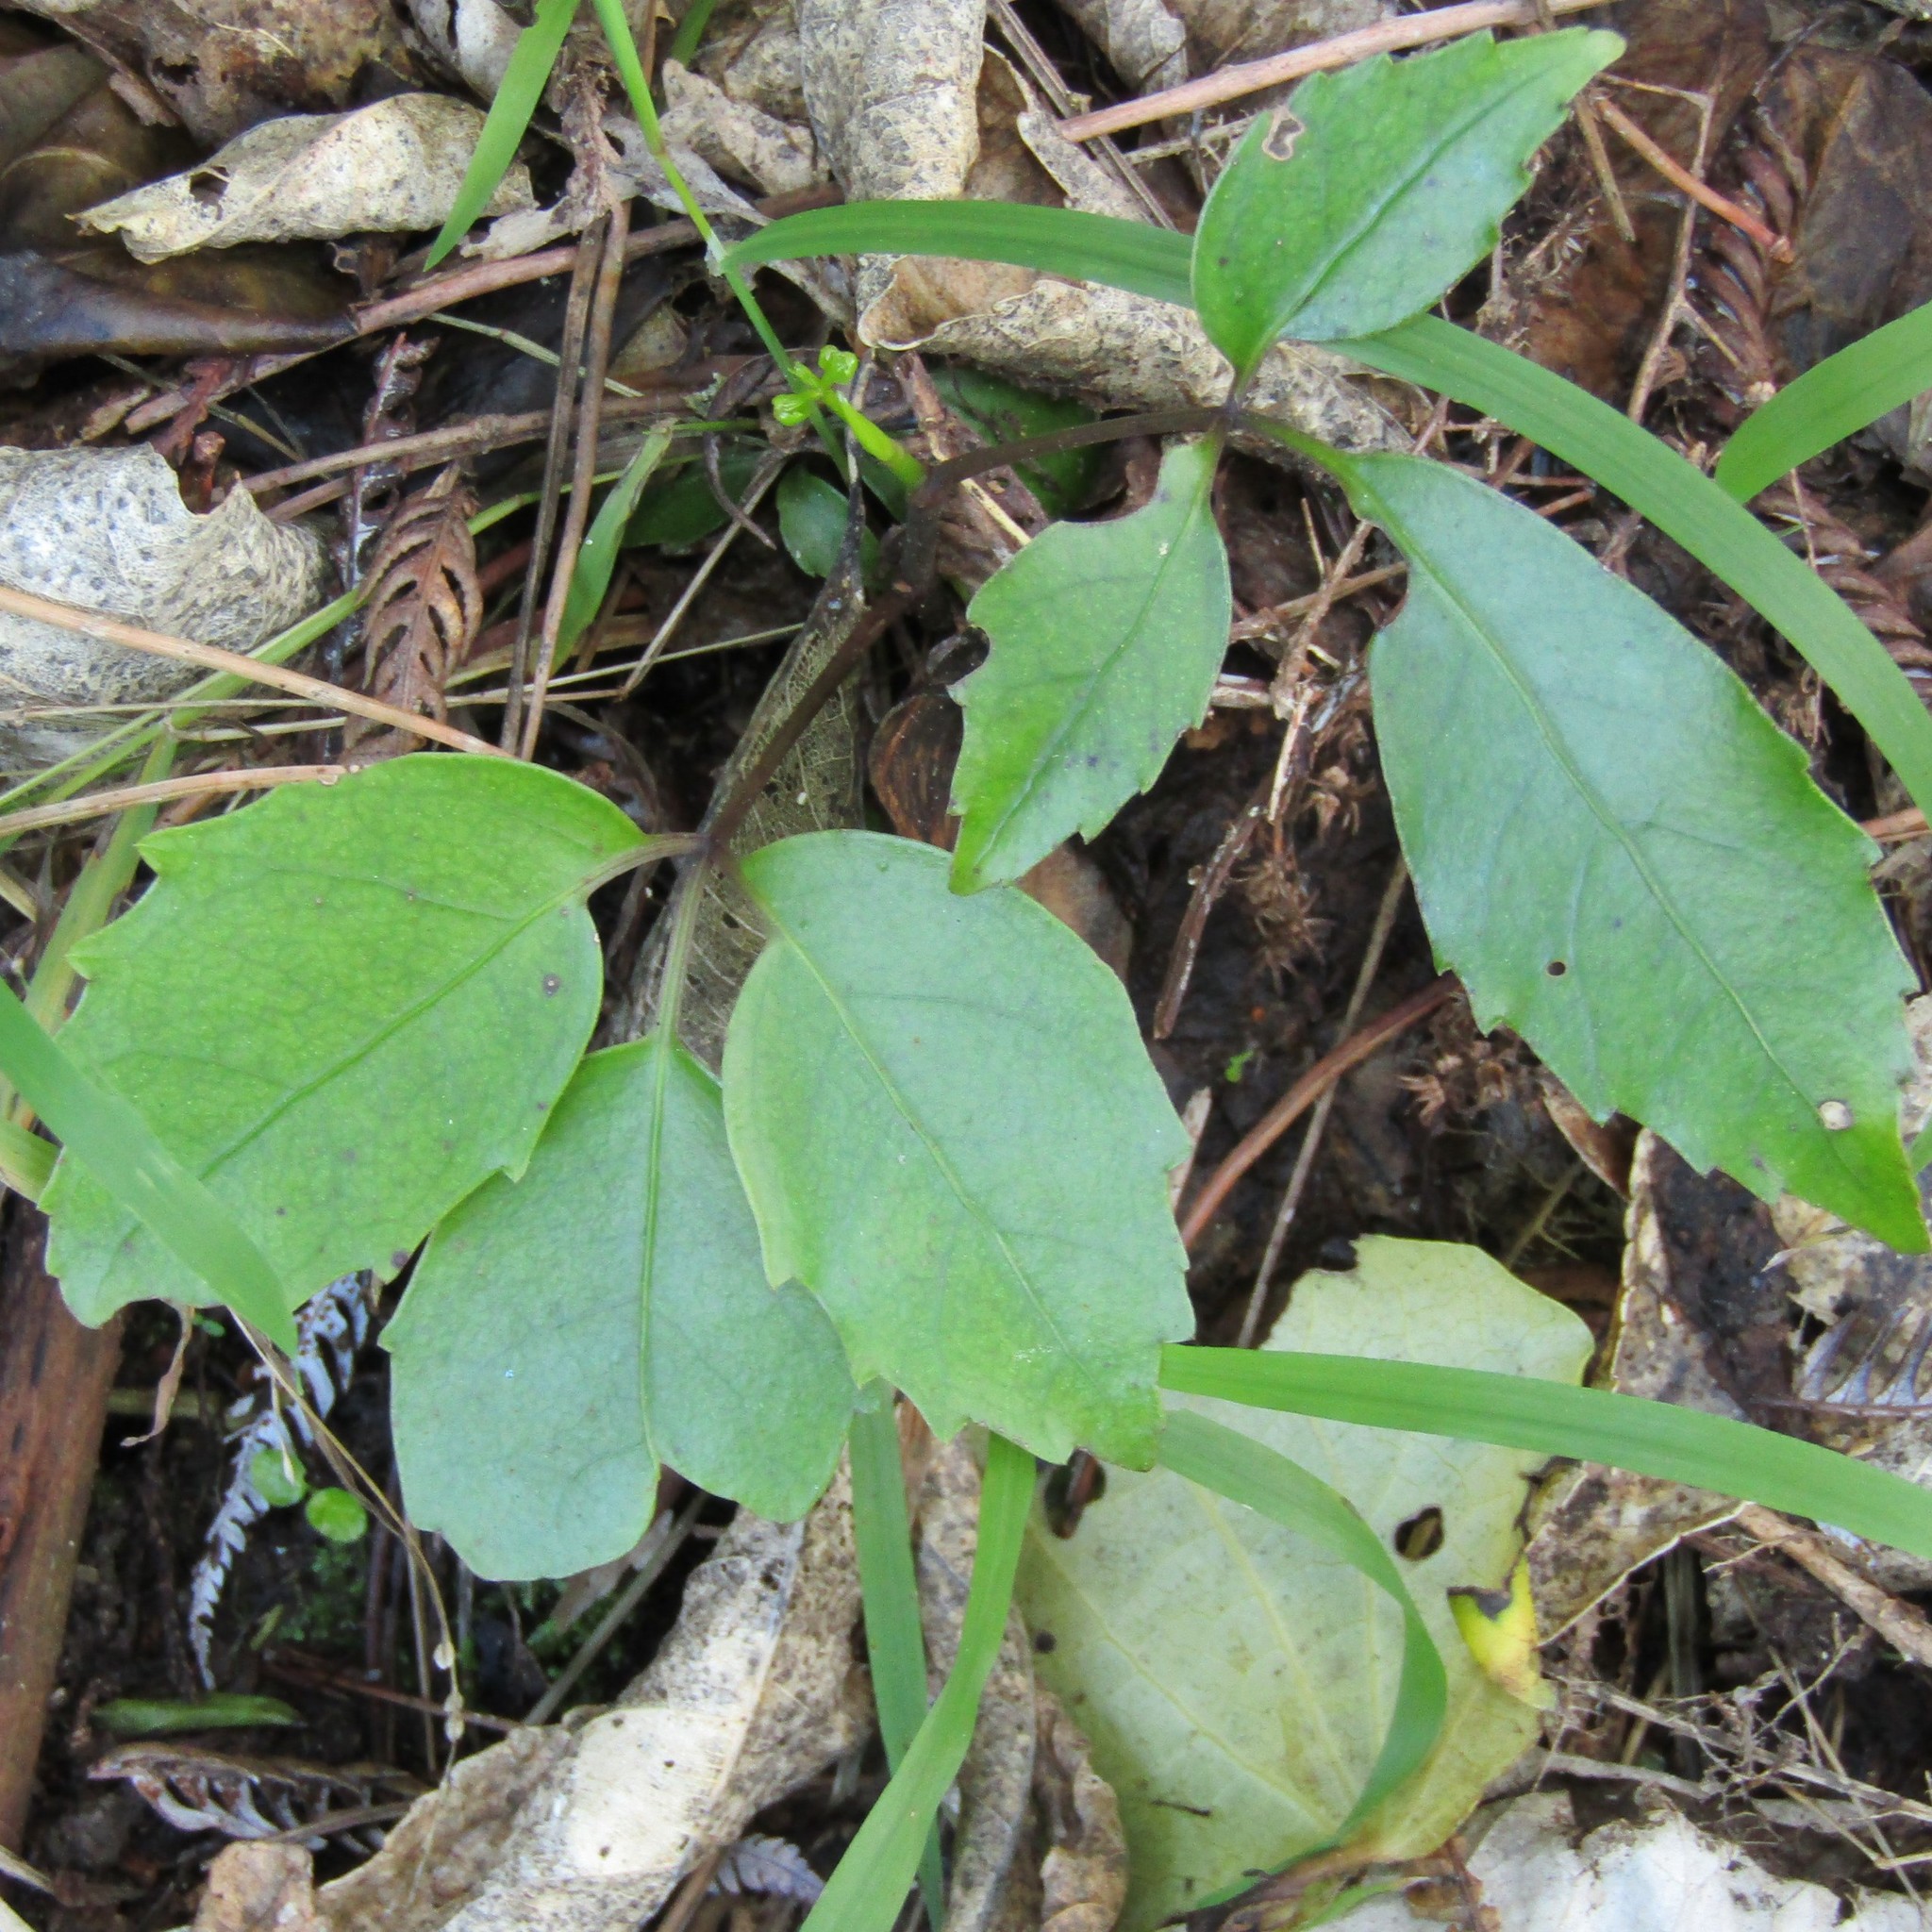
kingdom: Plantae
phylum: Tracheophyta
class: Magnoliopsida
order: Apiales
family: Araliaceae
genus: Neopanax
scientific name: Neopanax arboreus
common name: Five-fingers
